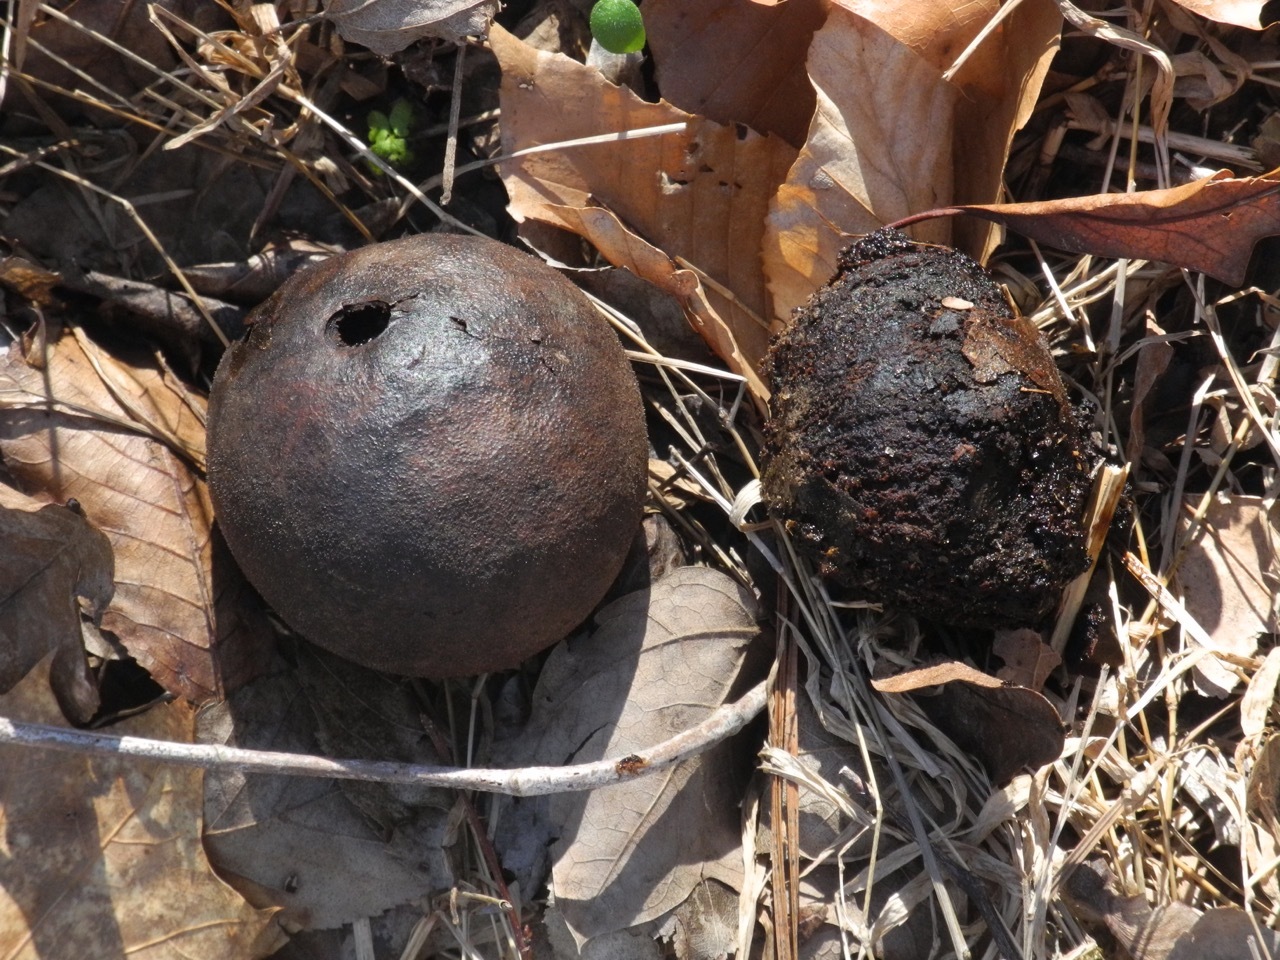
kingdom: Plantae
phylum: Tracheophyta
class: Magnoliopsida
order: Fagales
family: Juglandaceae
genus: Juglans
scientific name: Juglans nigra
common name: Black walnut
